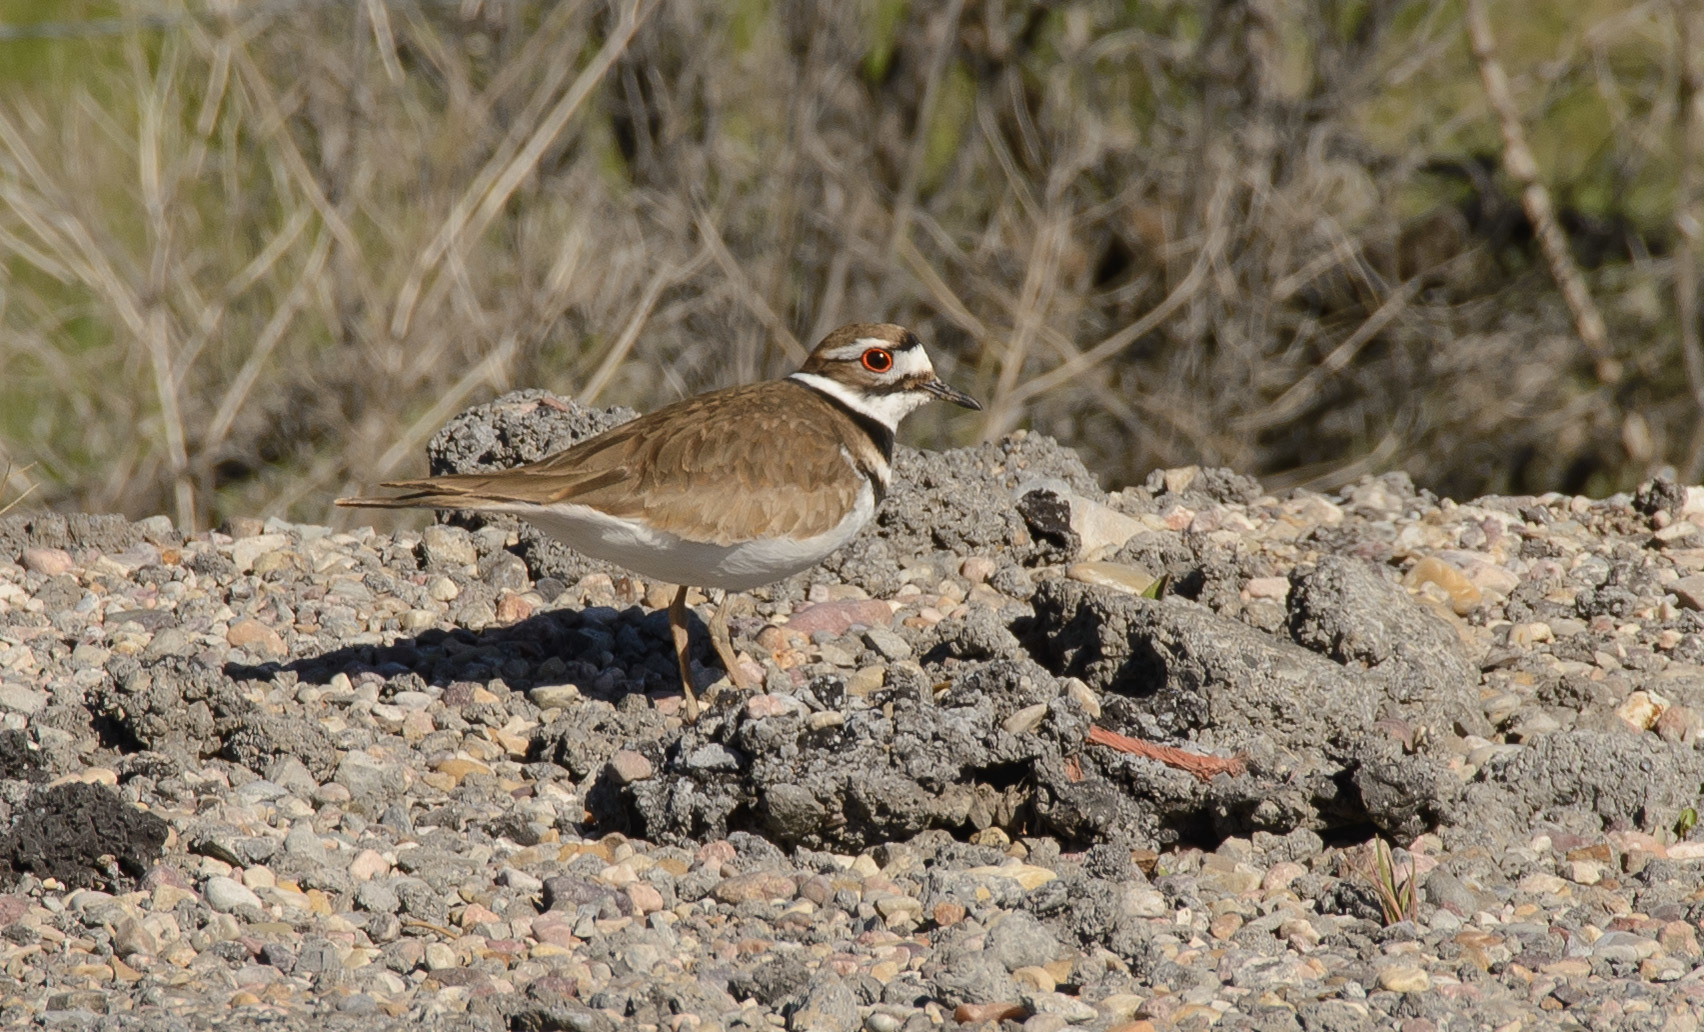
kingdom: Animalia
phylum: Chordata
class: Aves
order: Charadriiformes
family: Charadriidae
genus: Charadrius
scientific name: Charadrius vociferus
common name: Killdeer
